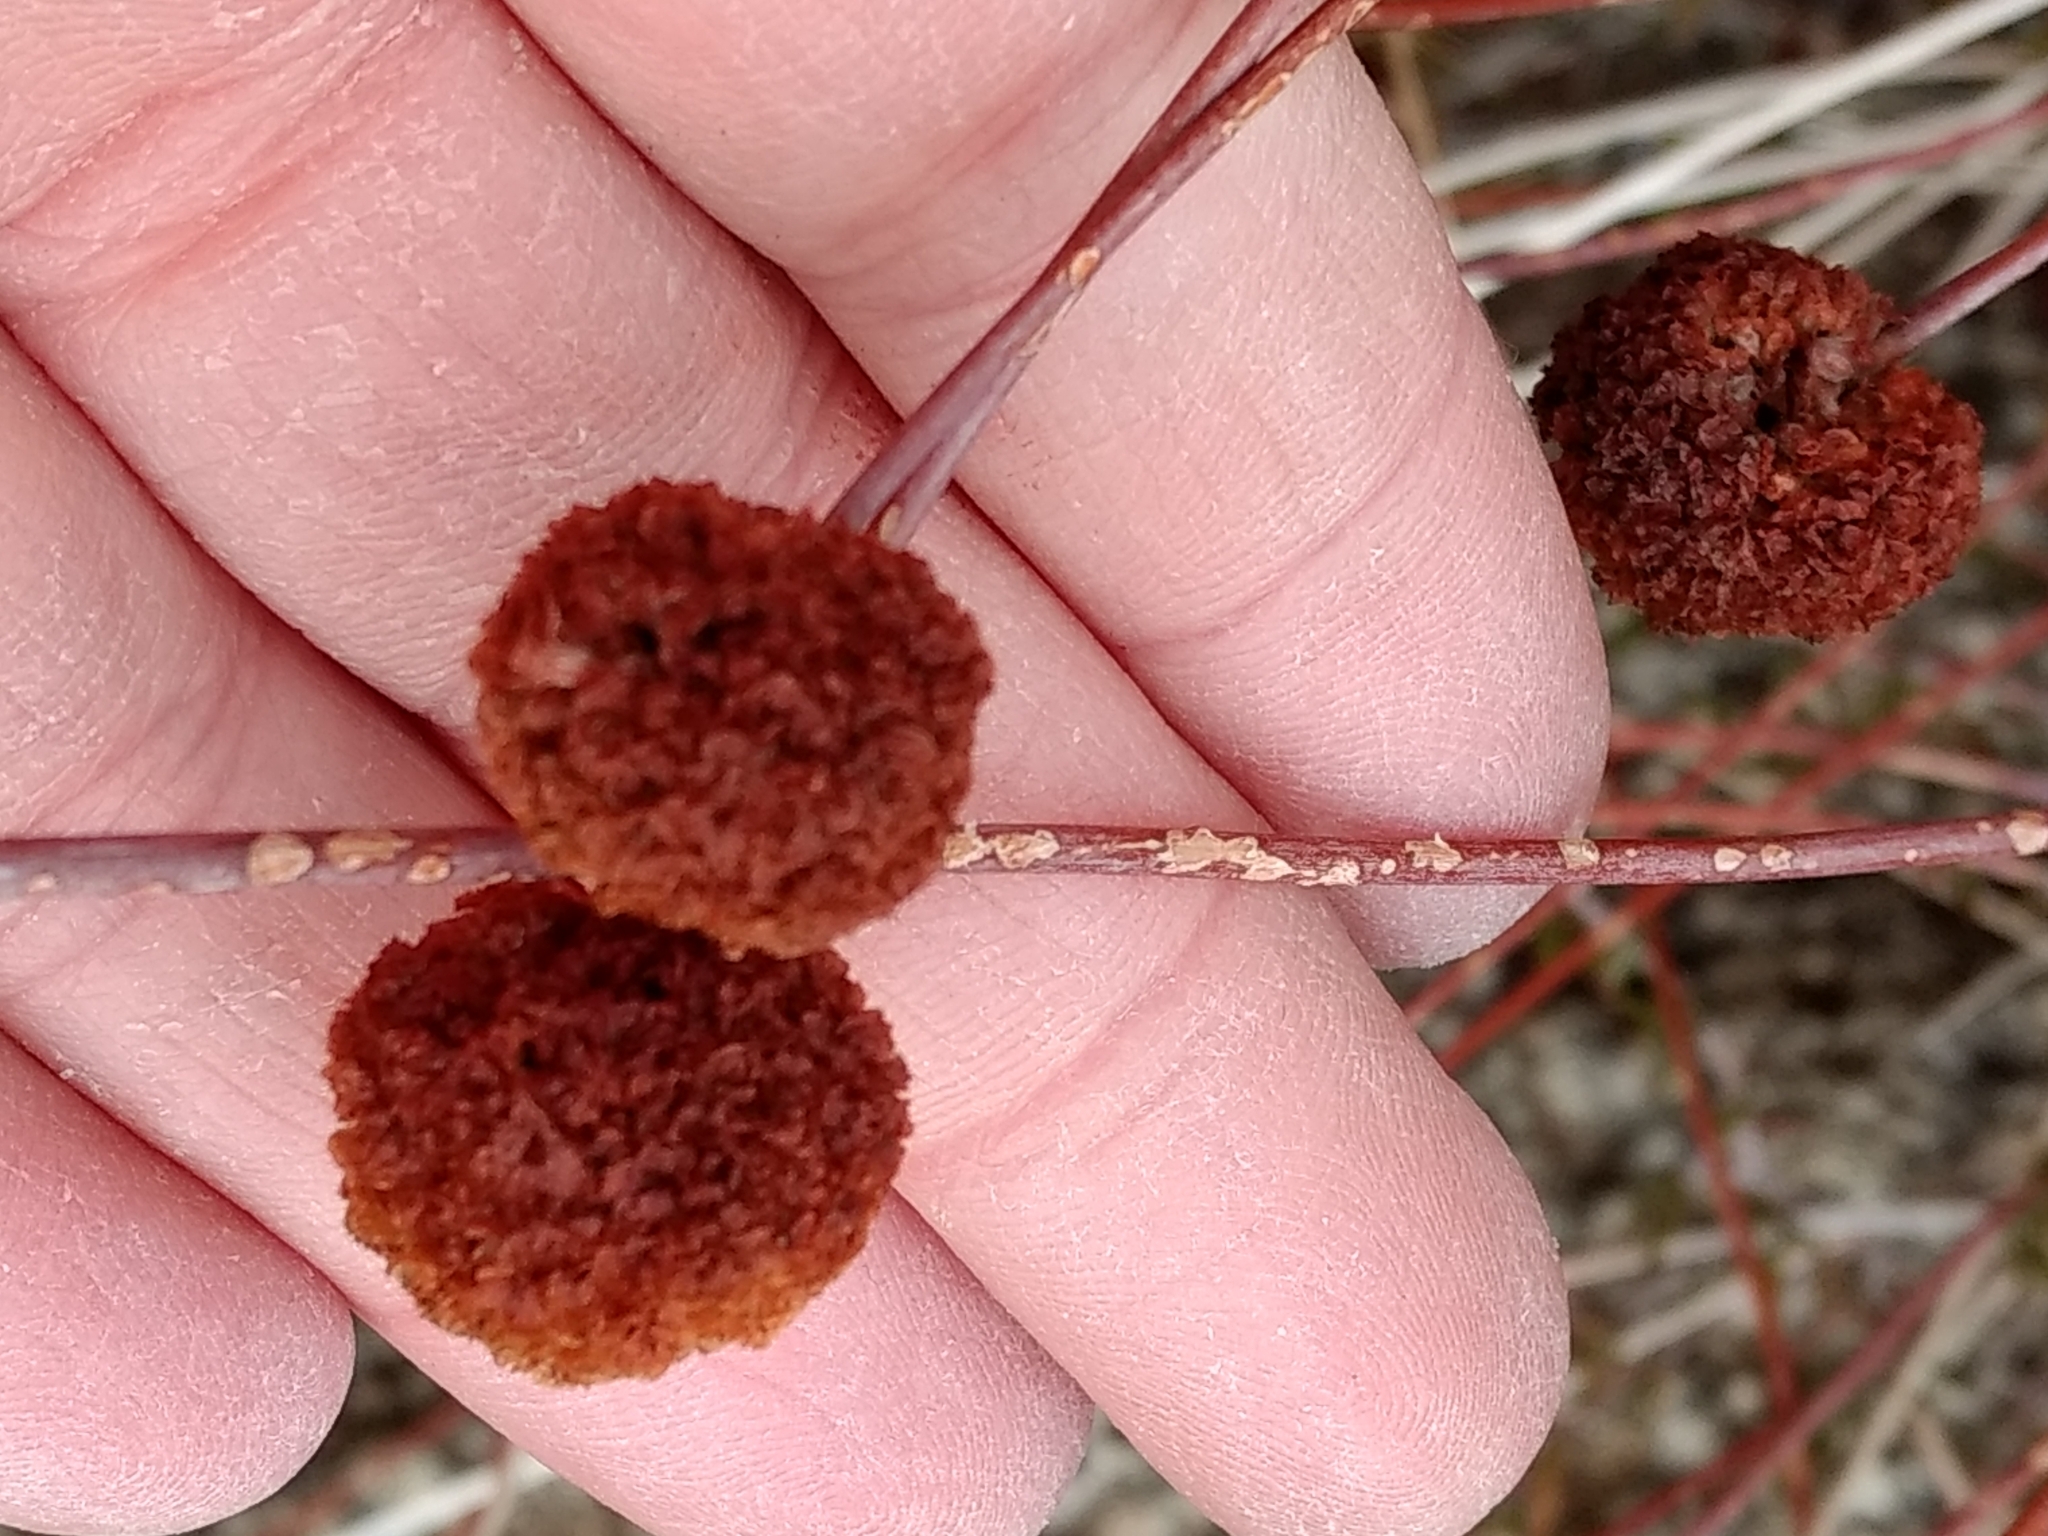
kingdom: Plantae
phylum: Tracheophyta
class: Magnoliopsida
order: Caryophyllales
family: Polygonaceae
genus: Eriogonum
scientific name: Eriogonum fasciculatum
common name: California wild buckwheat
